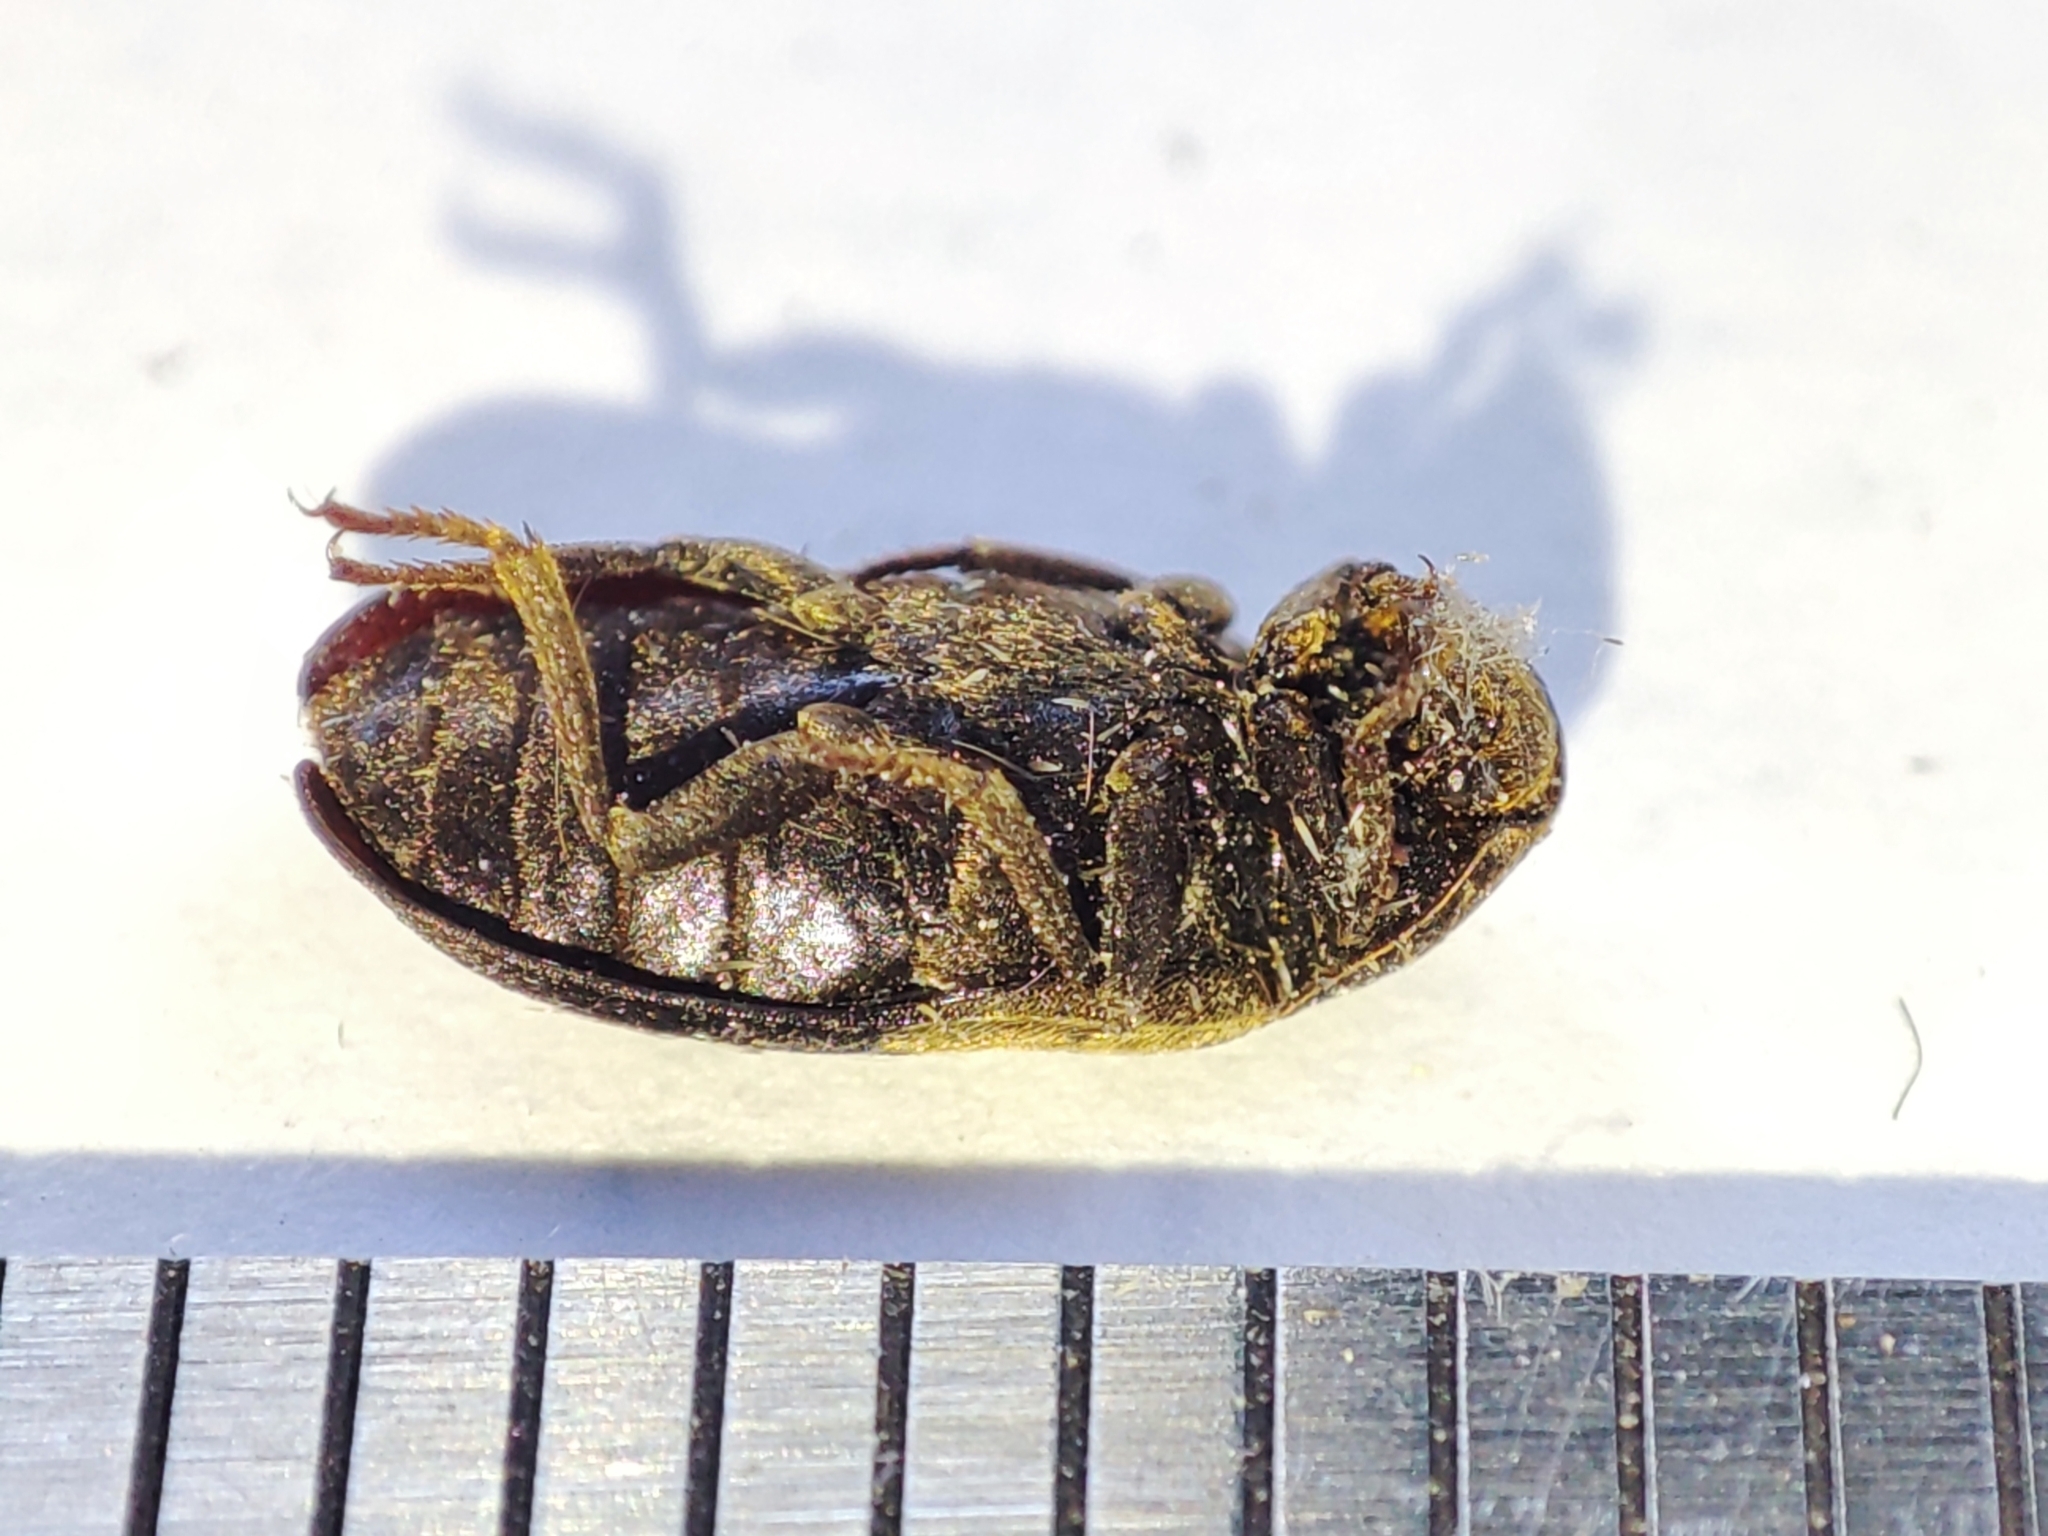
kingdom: Animalia
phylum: Arthropoda
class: Insecta
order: Coleoptera
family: Dermestidae
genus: Dermestes
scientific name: Dermestes lardarius
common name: Larder beetle
